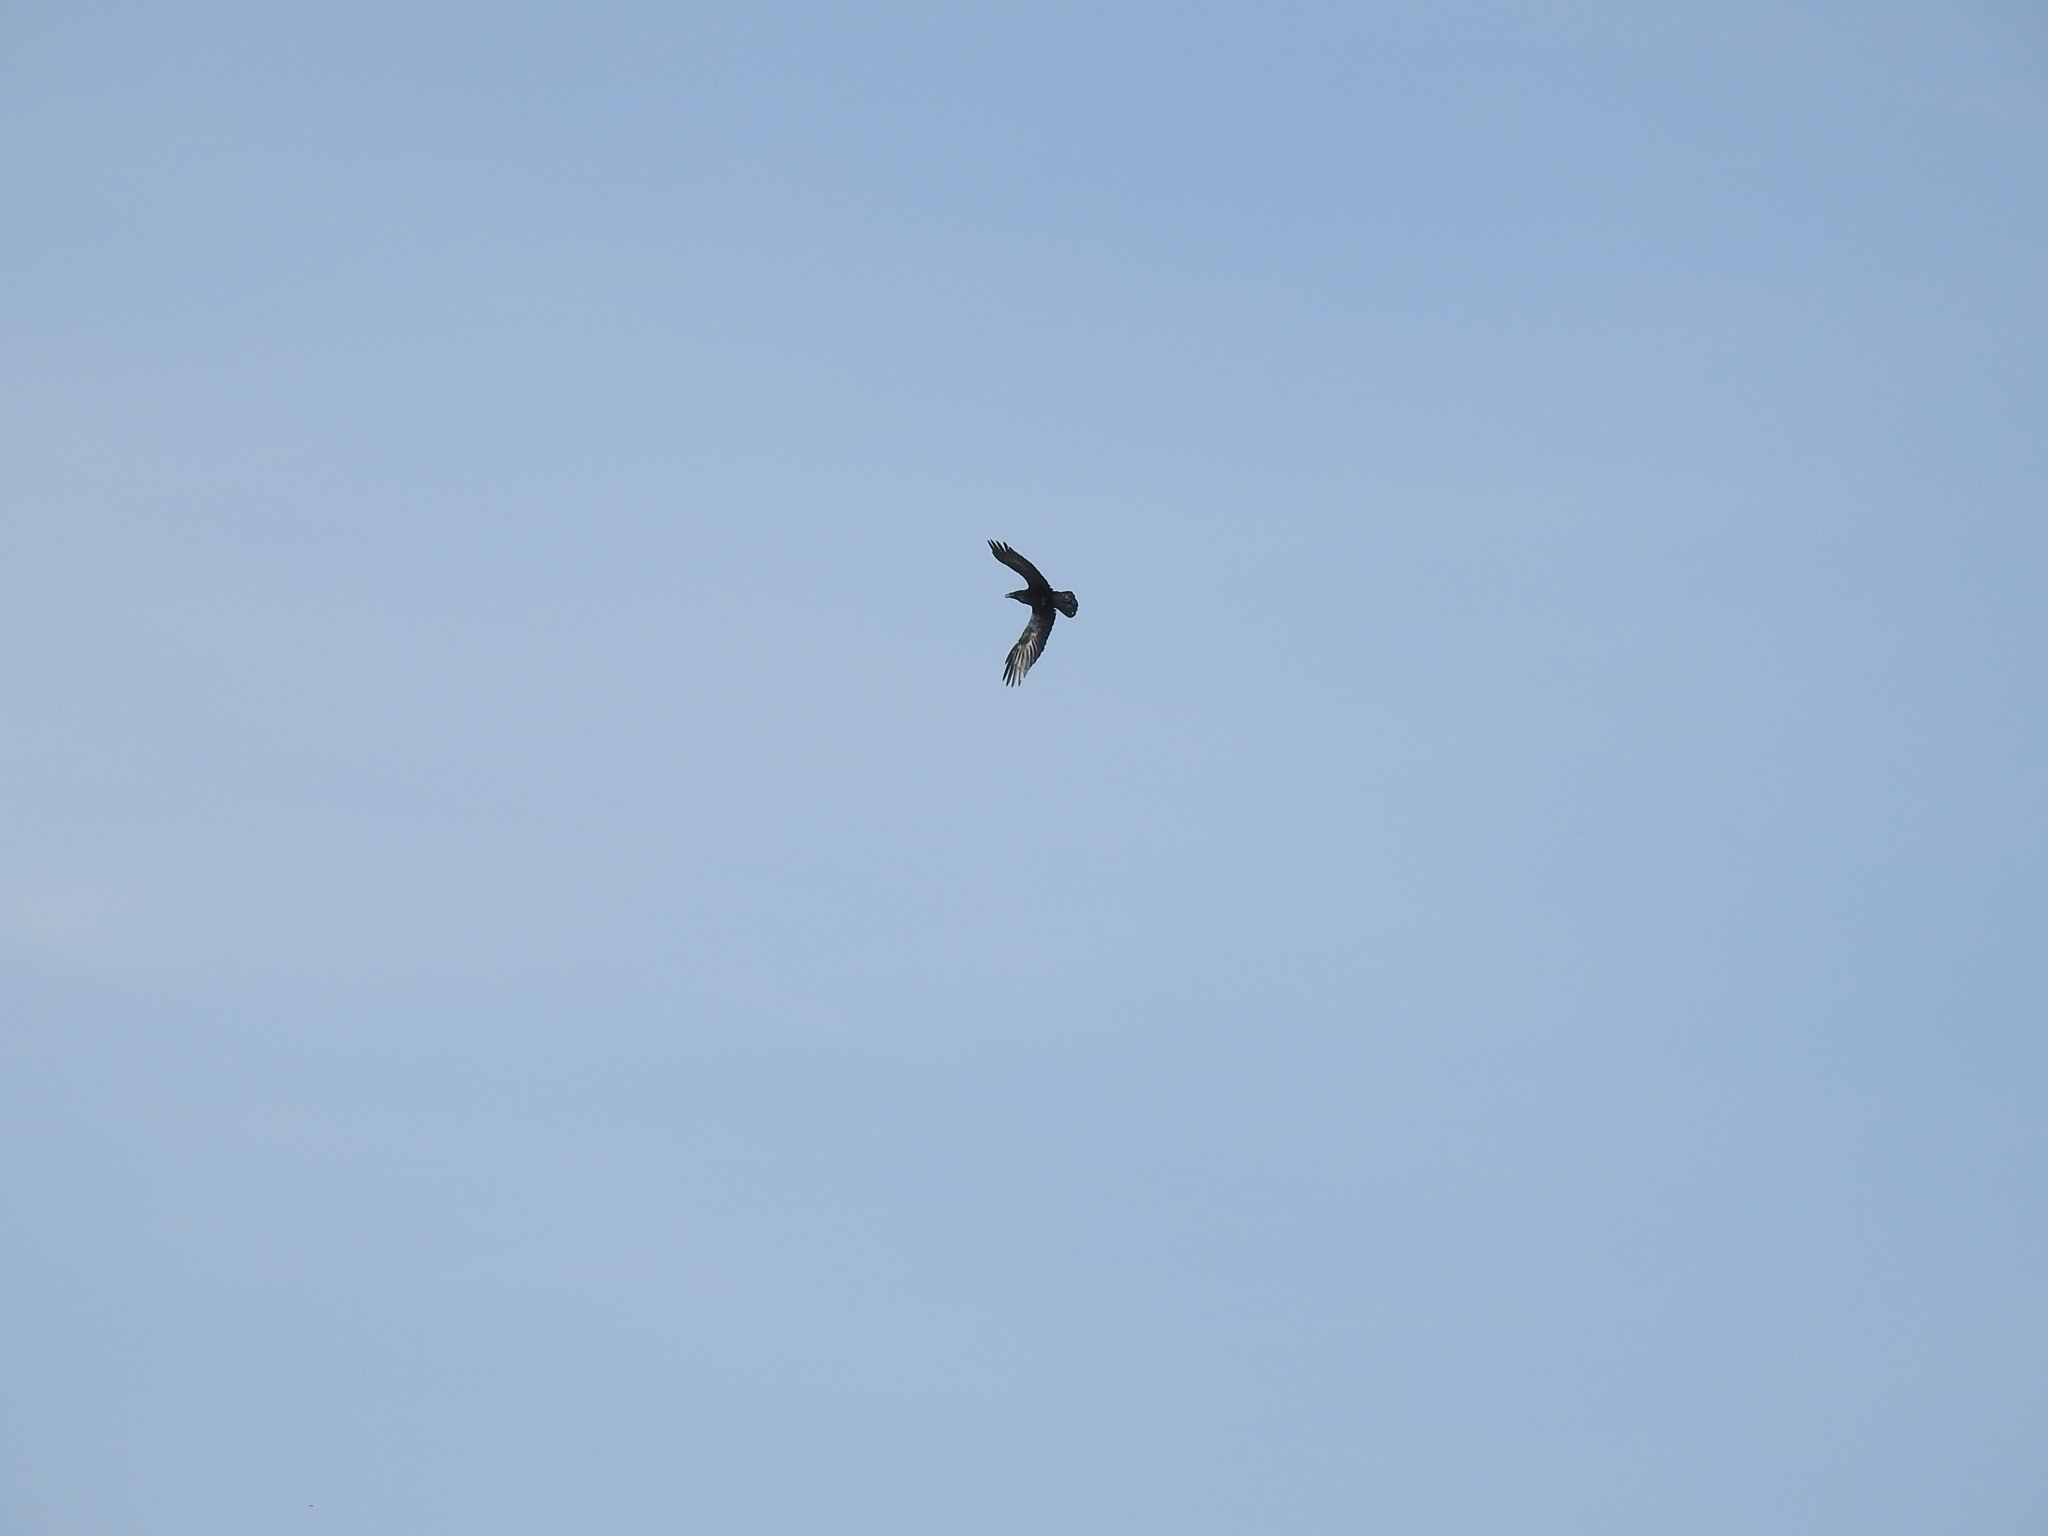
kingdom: Animalia
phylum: Chordata
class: Aves
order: Passeriformes
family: Corvidae
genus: Corvus
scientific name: Corvus corax
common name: Common raven
